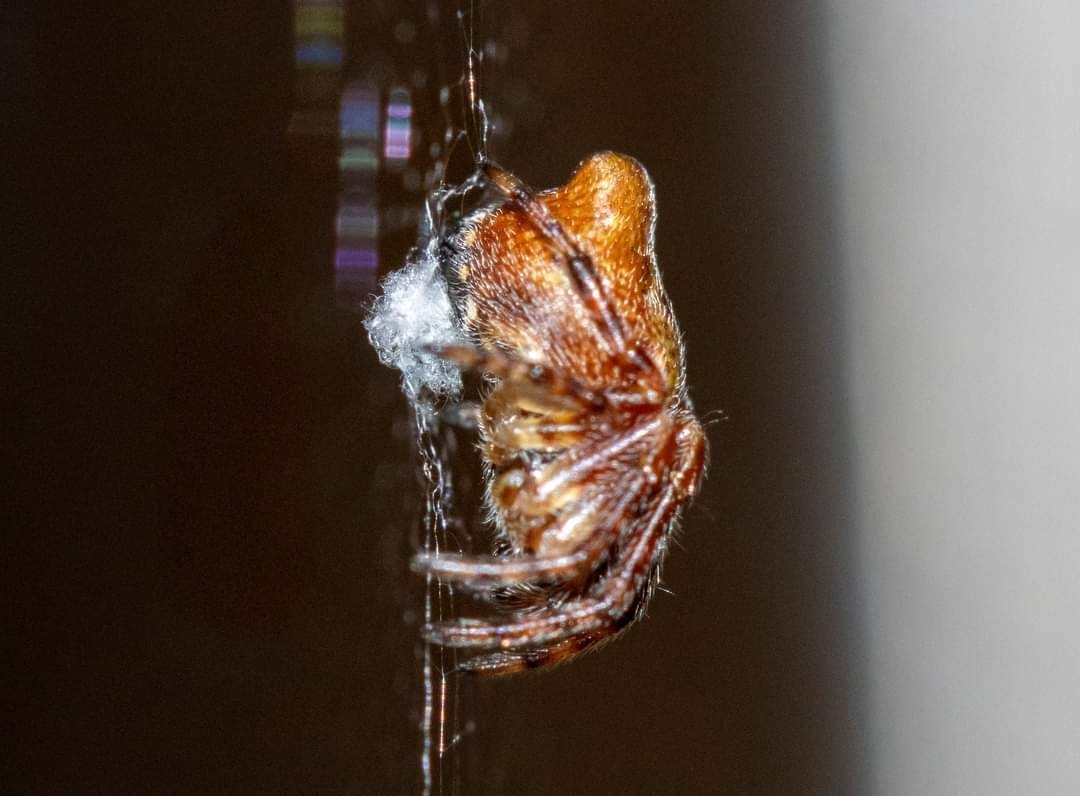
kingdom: Animalia
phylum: Arthropoda
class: Arachnida
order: Araneae
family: Araneidae
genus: Cyclosa
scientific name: Cyclosa conica
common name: Conical trashline orbweaver
